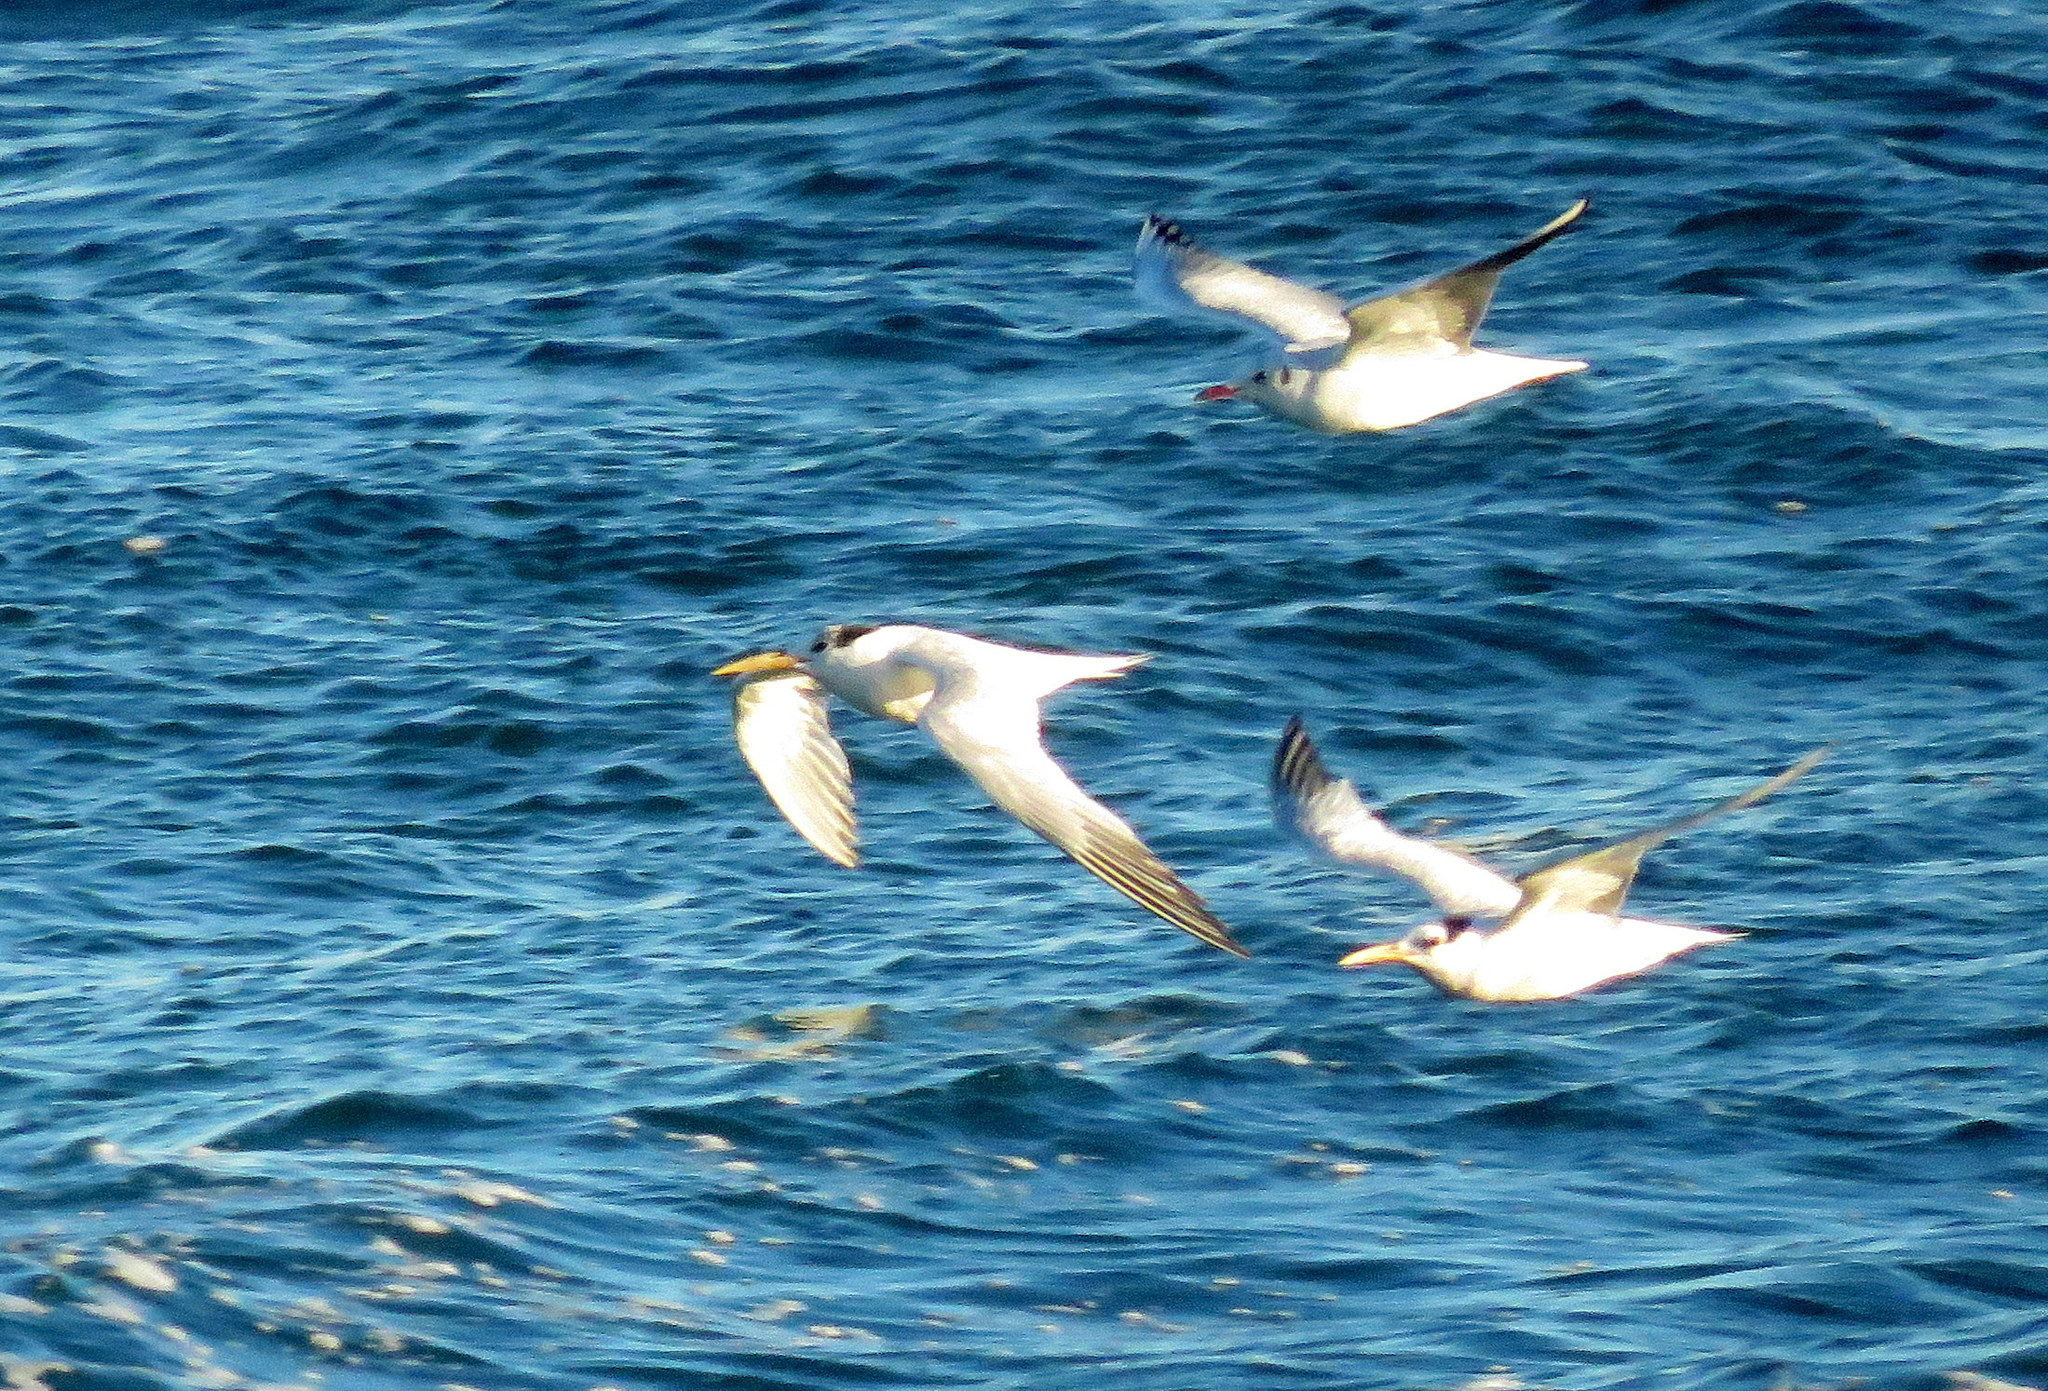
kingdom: Animalia
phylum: Chordata
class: Aves
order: Charadriiformes
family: Laridae
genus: Thalasseus
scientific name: Thalasseus sandvicensis
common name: Sandwich tern
